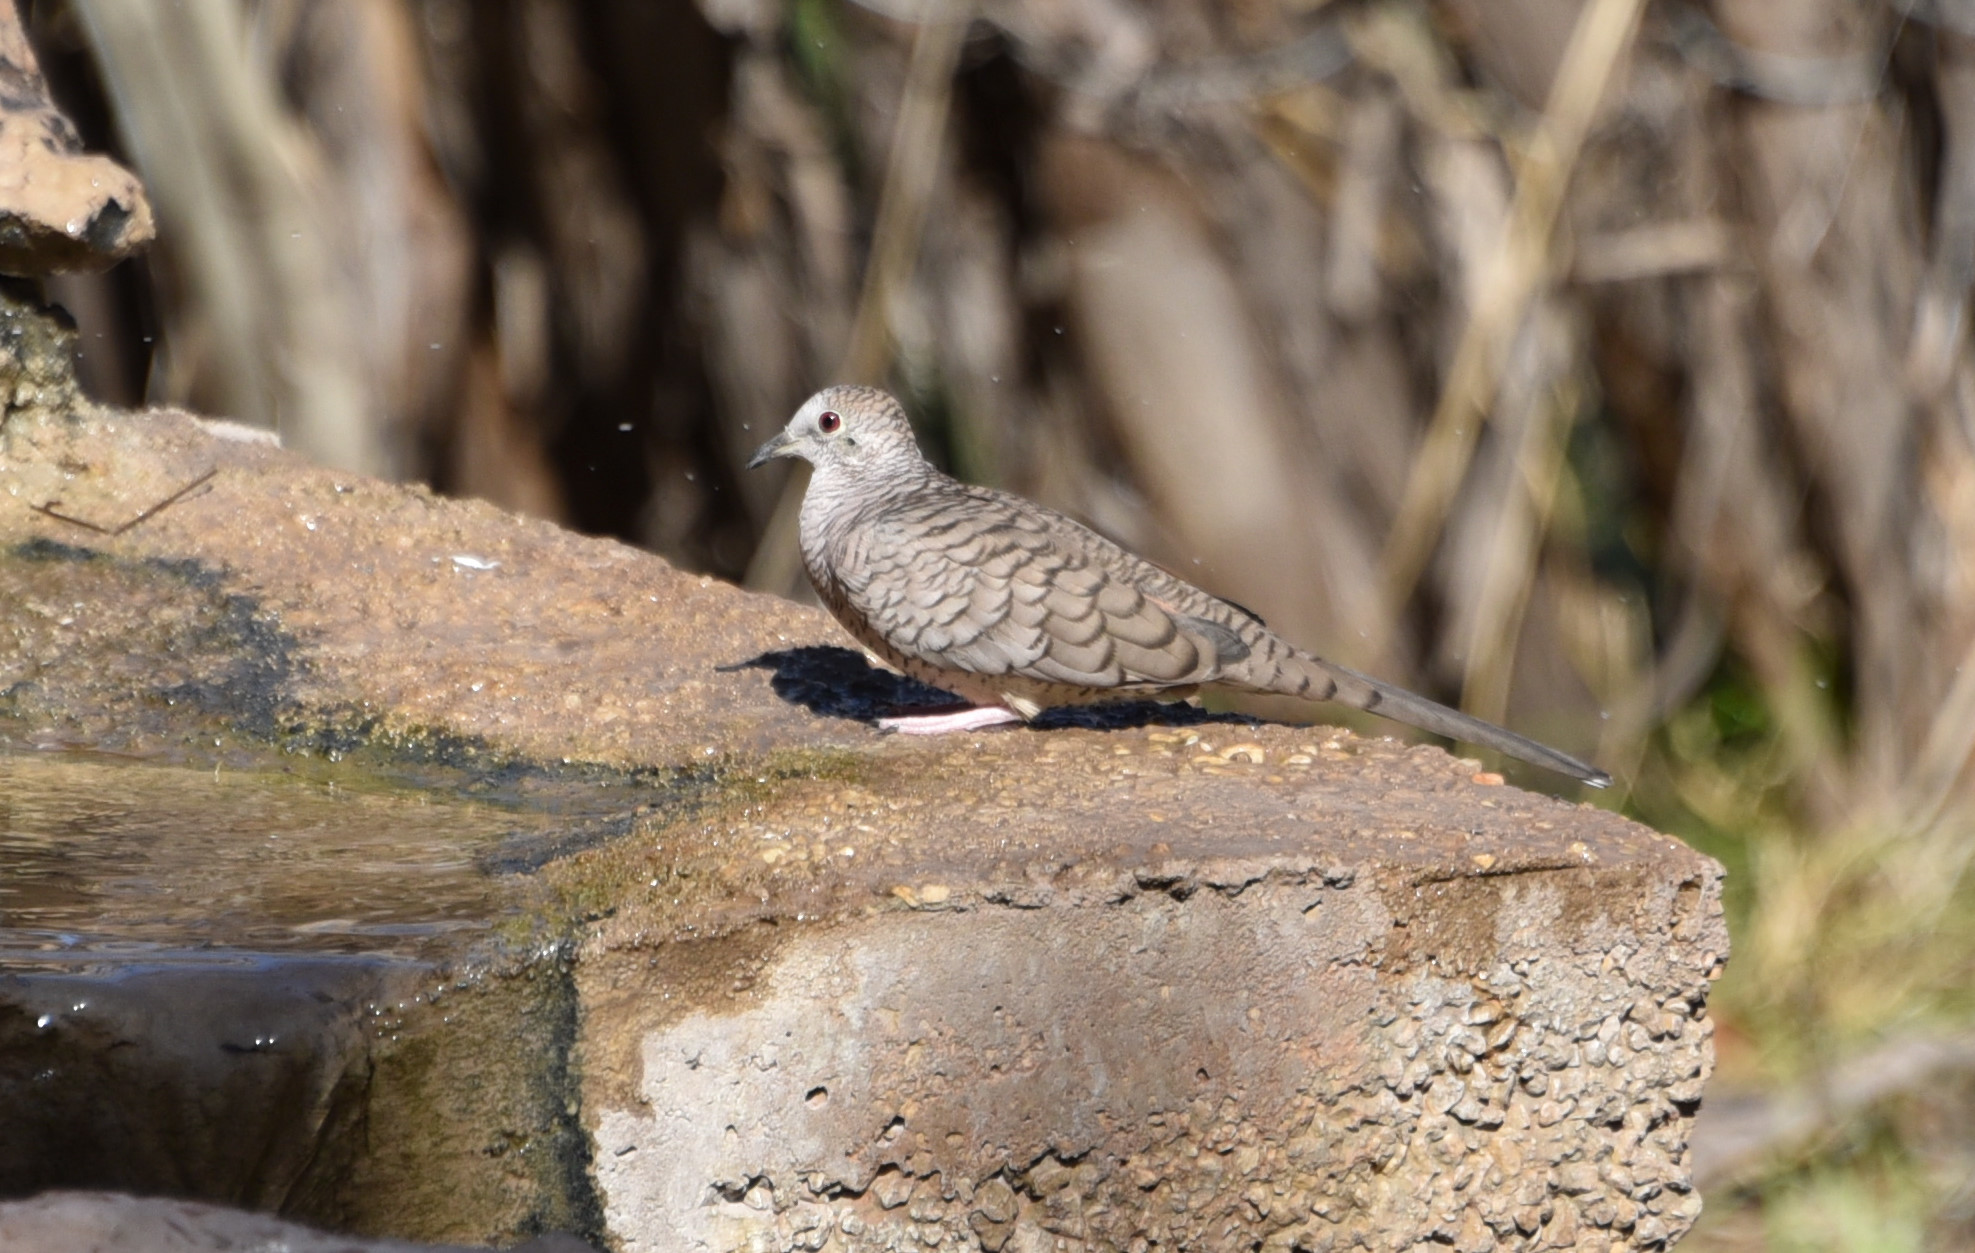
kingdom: Animalia
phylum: Chordata
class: Aves
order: Columbiformes
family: Columbidae
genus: Columbina
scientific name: Columbina inca
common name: Inca dove
